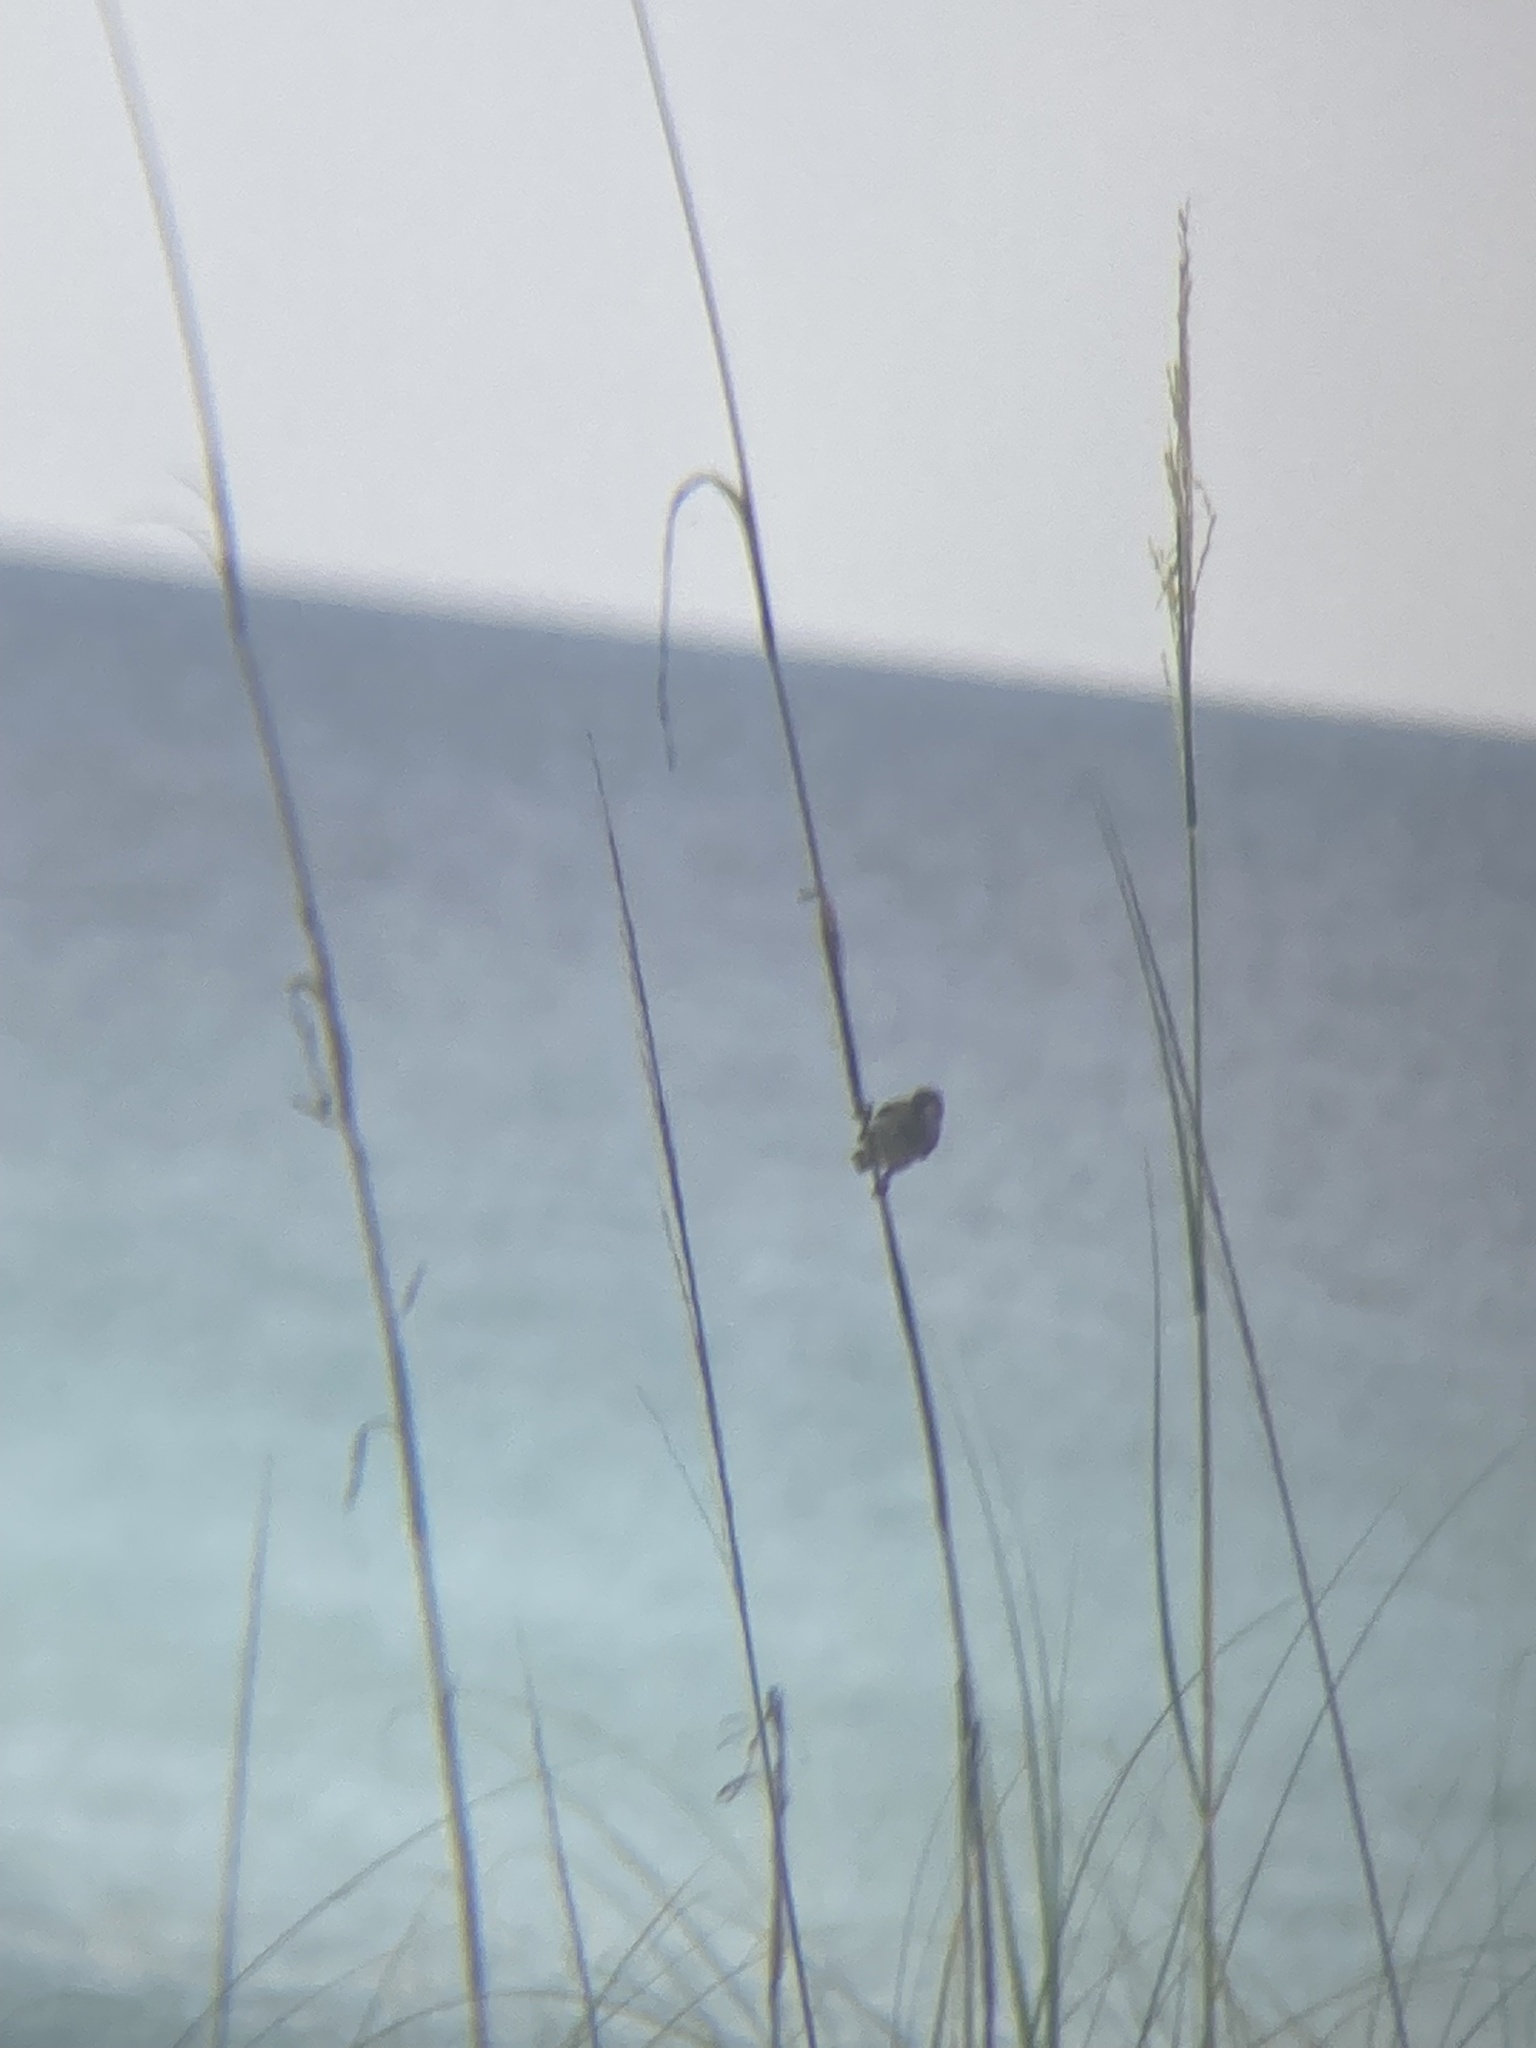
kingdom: Animalia
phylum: Chordata
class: Aves
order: Passeriformes
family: Passeridae
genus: Passer
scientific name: Passer domesticus
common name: House sparrow
